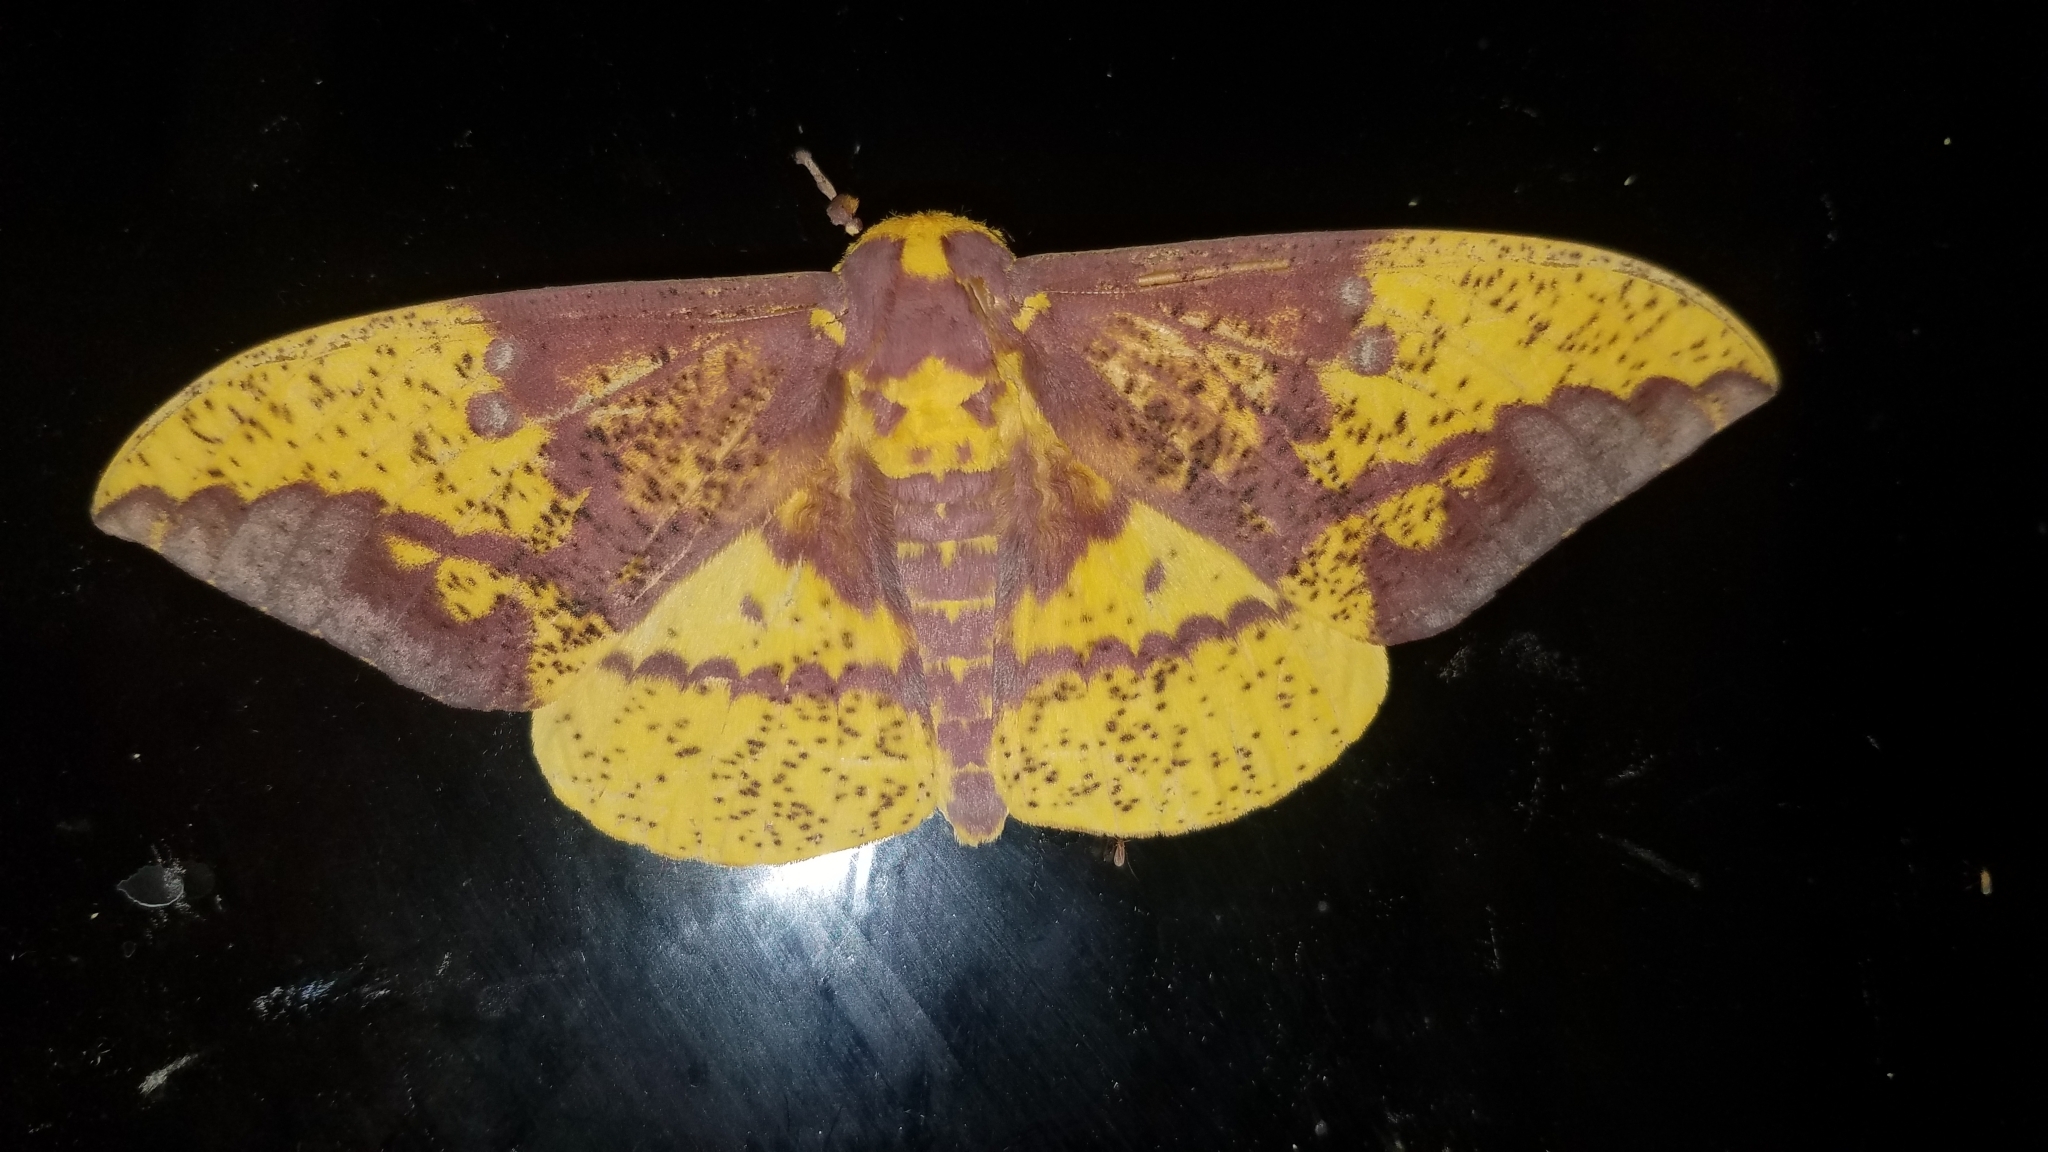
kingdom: Animalia
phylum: Arthropoda
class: Insecta
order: Lepidoptera
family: Saturniidae
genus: Eacles
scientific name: Eacles imperialis
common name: Imperial moth
